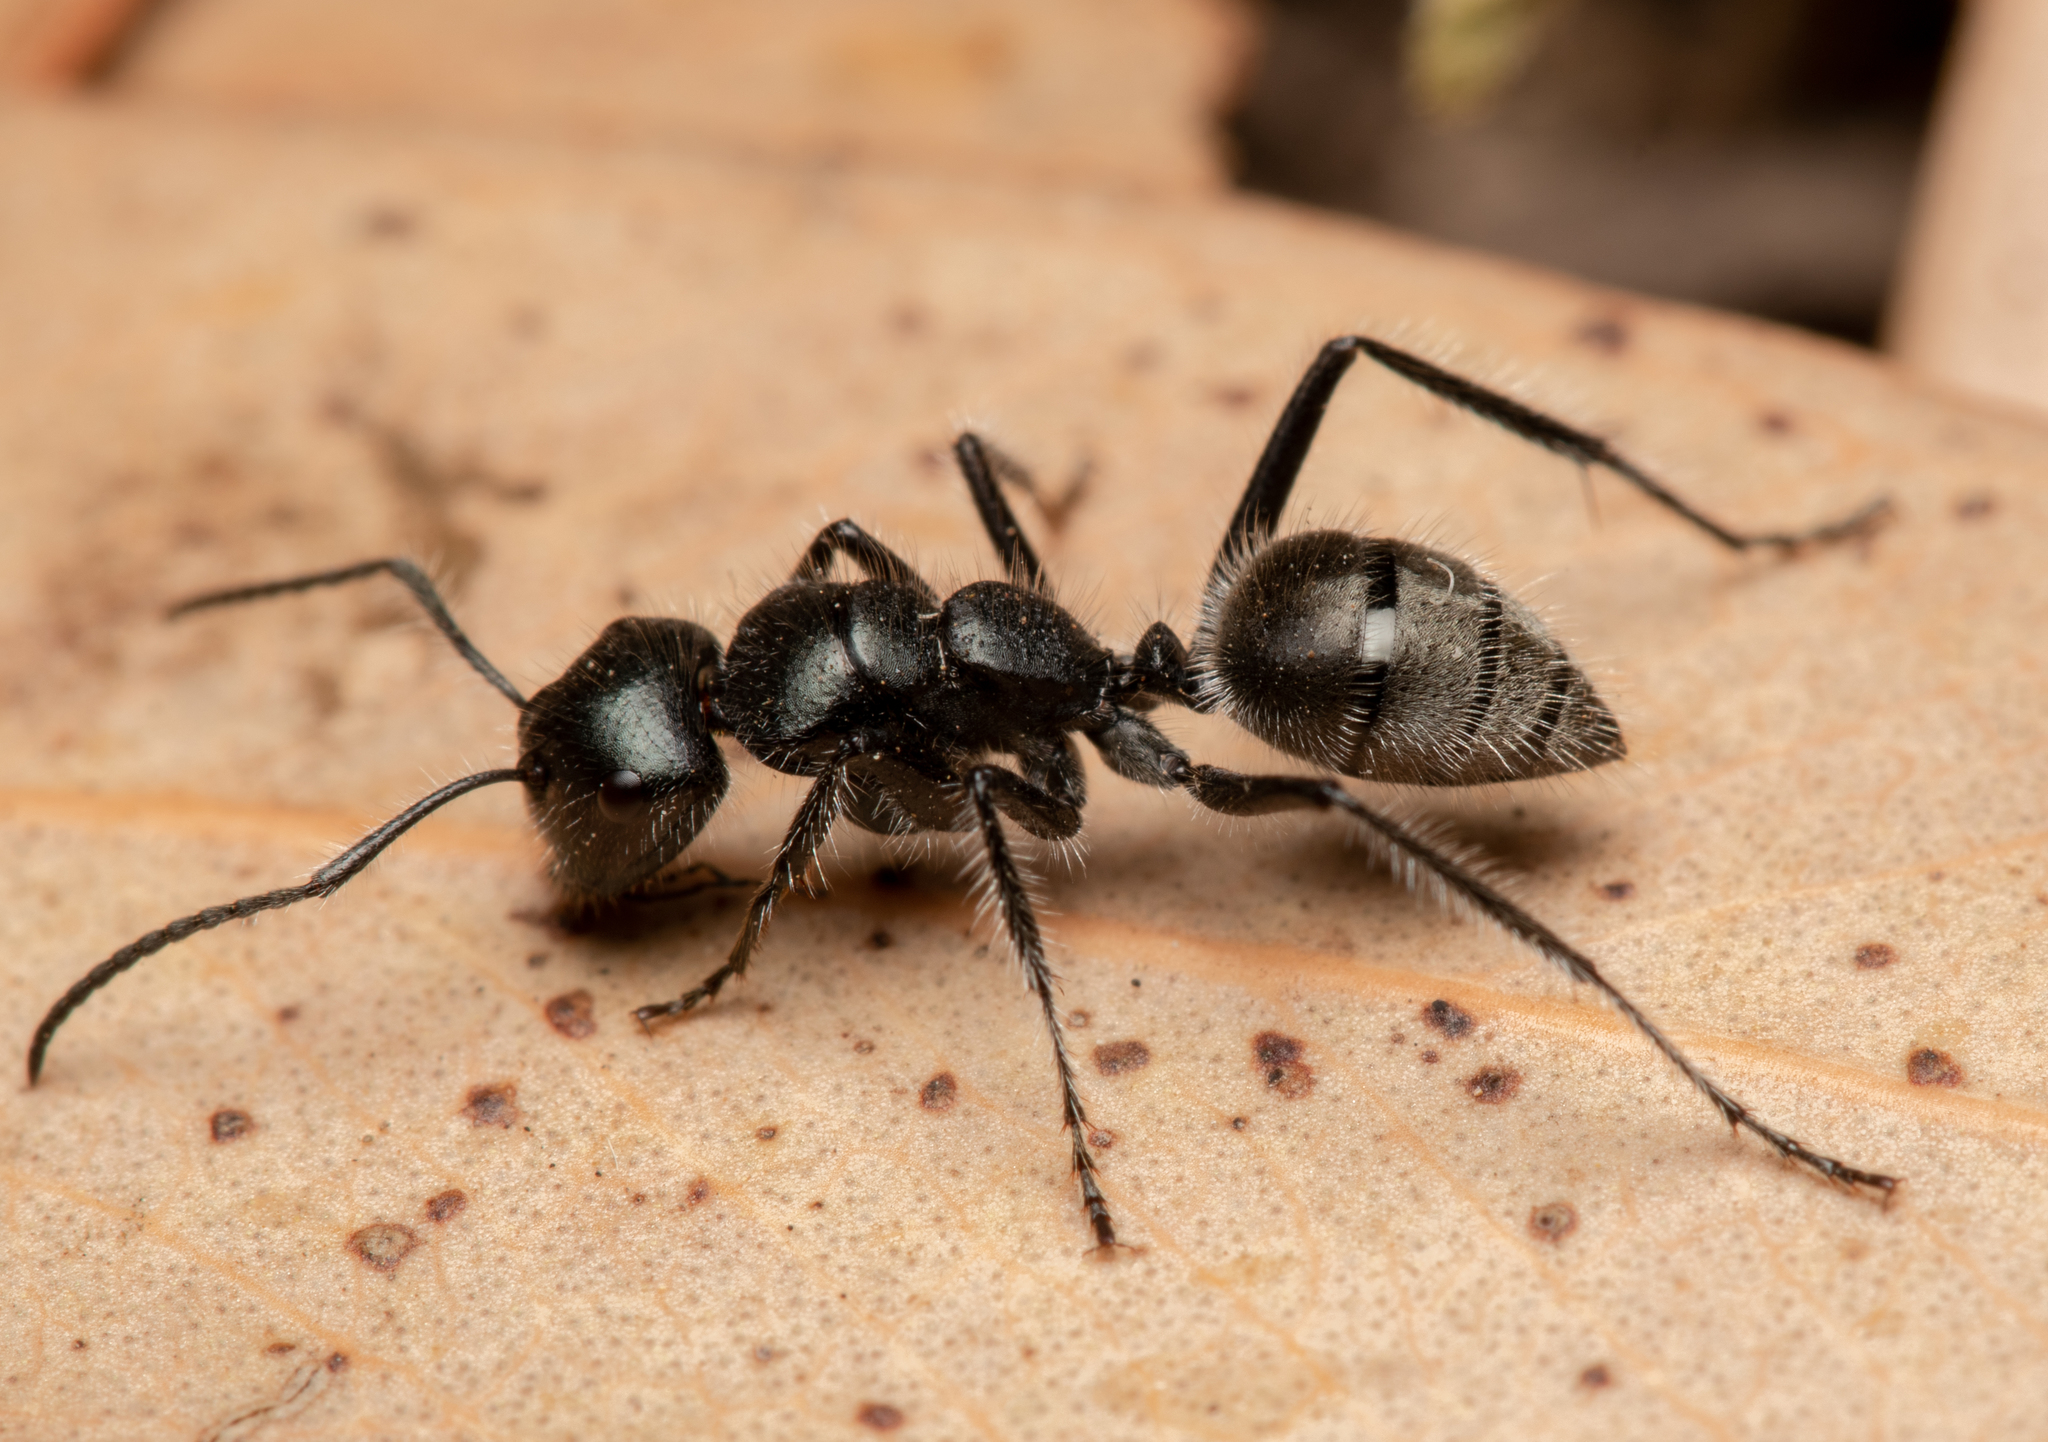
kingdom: Animalia
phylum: Arthropoda
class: Insecta
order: Hymenoptera
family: Formicidae
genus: Calomyrmex
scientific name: Calomyrmex albopilosus
